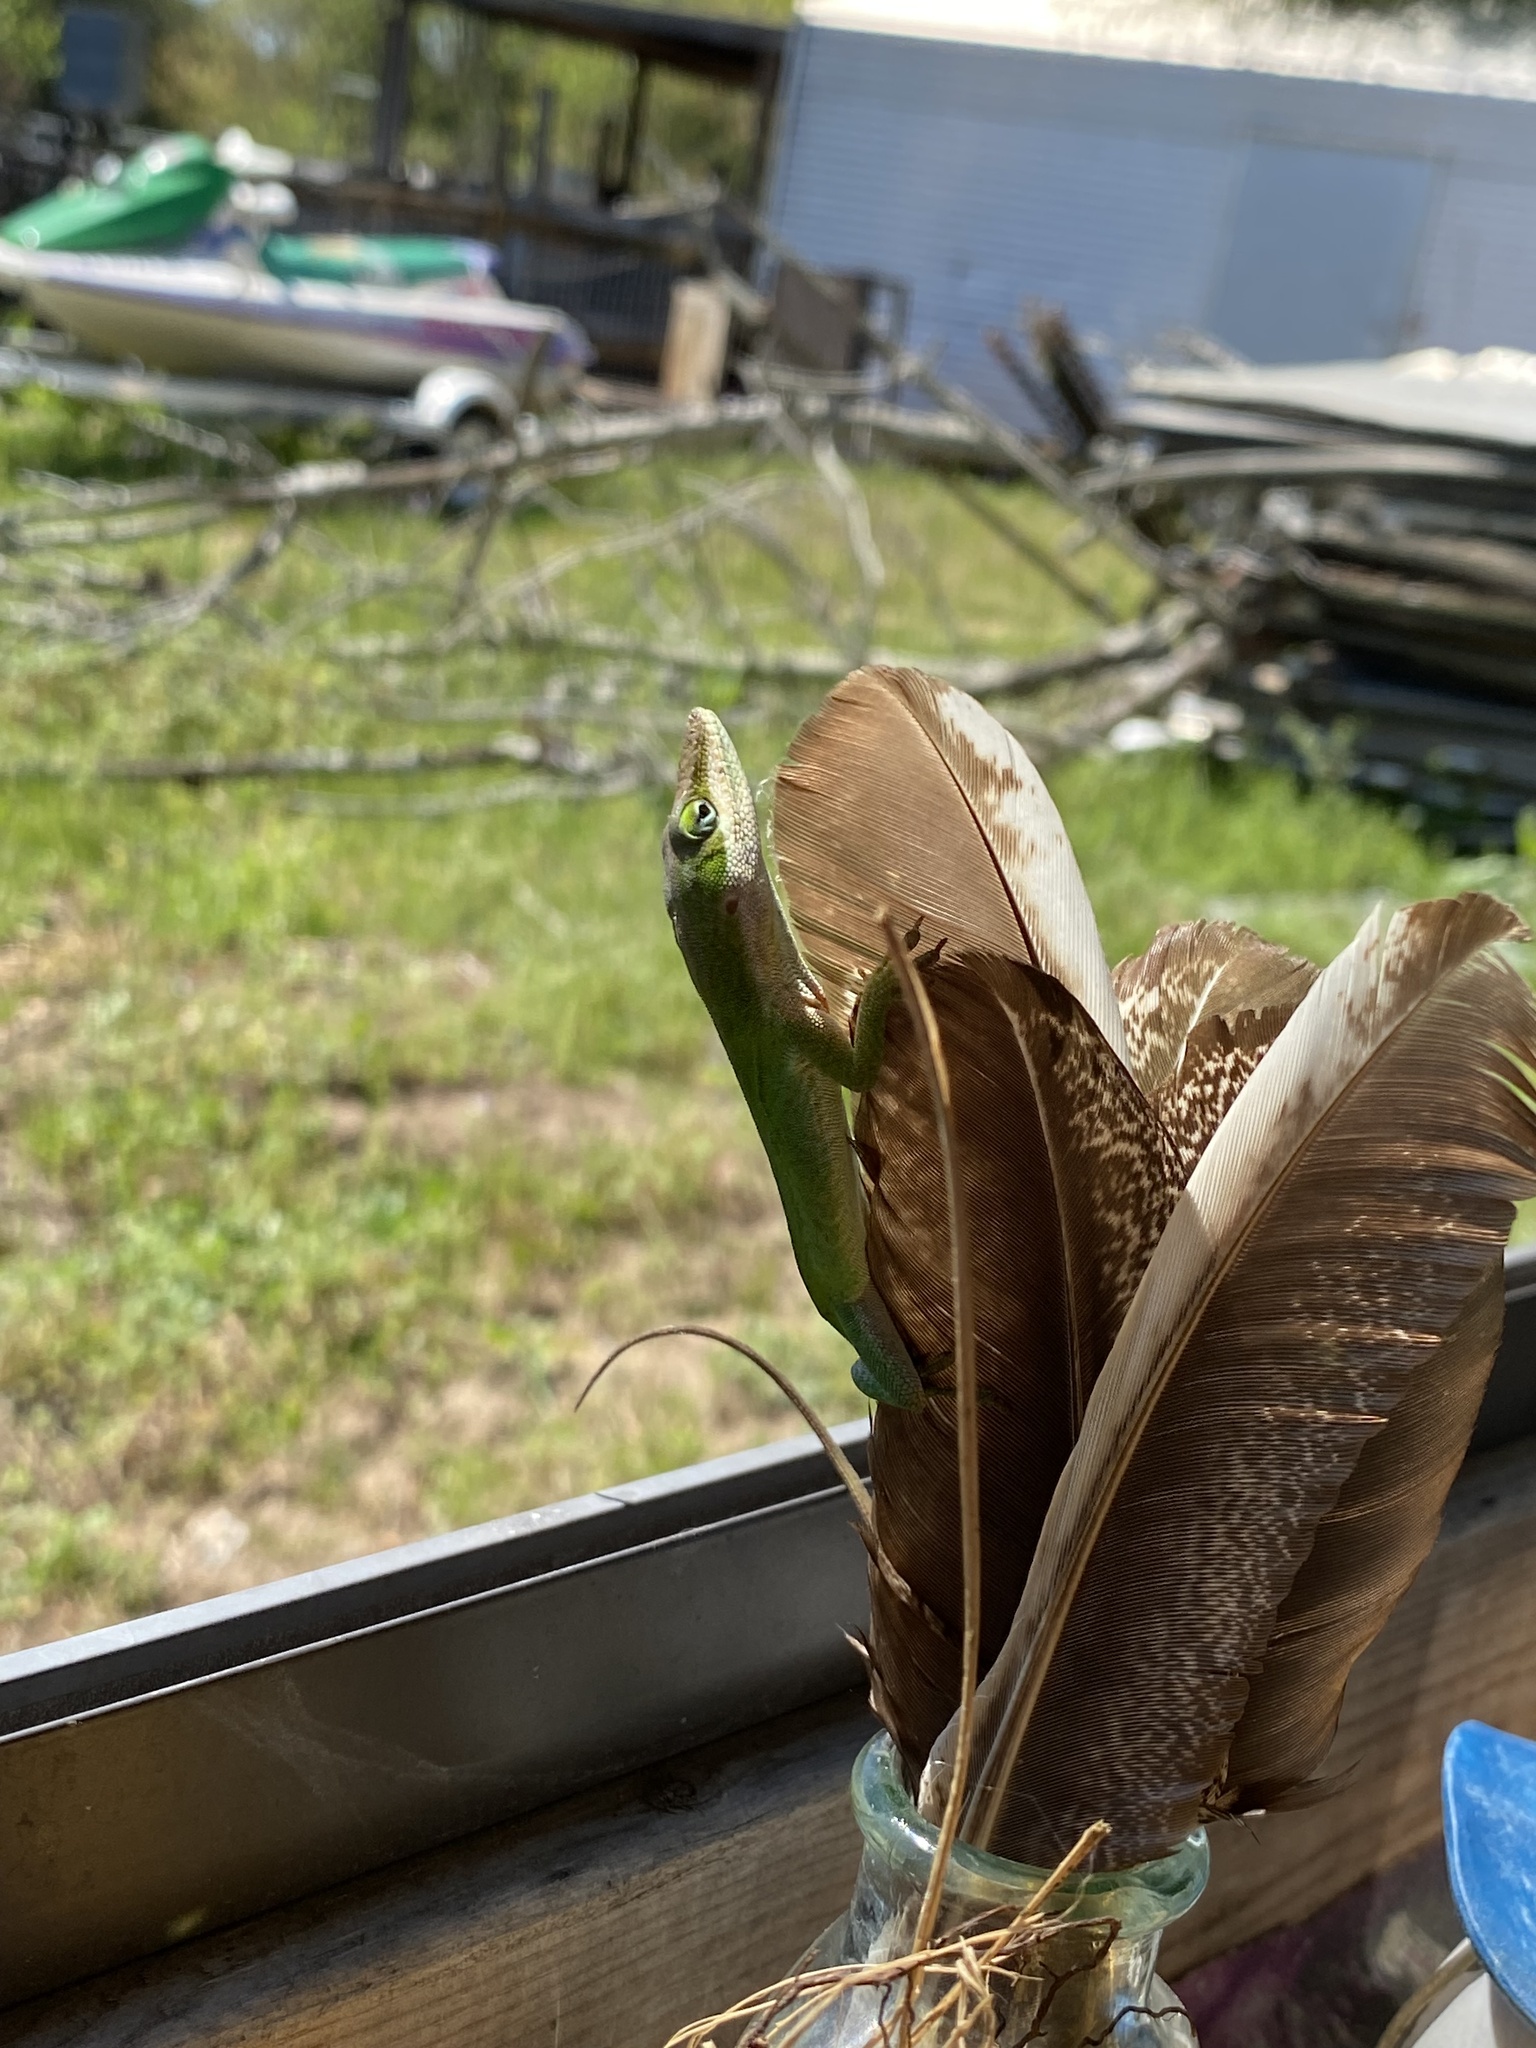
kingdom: Animalia
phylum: Chordata
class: Squamata
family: Dactyloidae
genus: Anolis
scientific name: Anolis carolinensis
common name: Green anole
